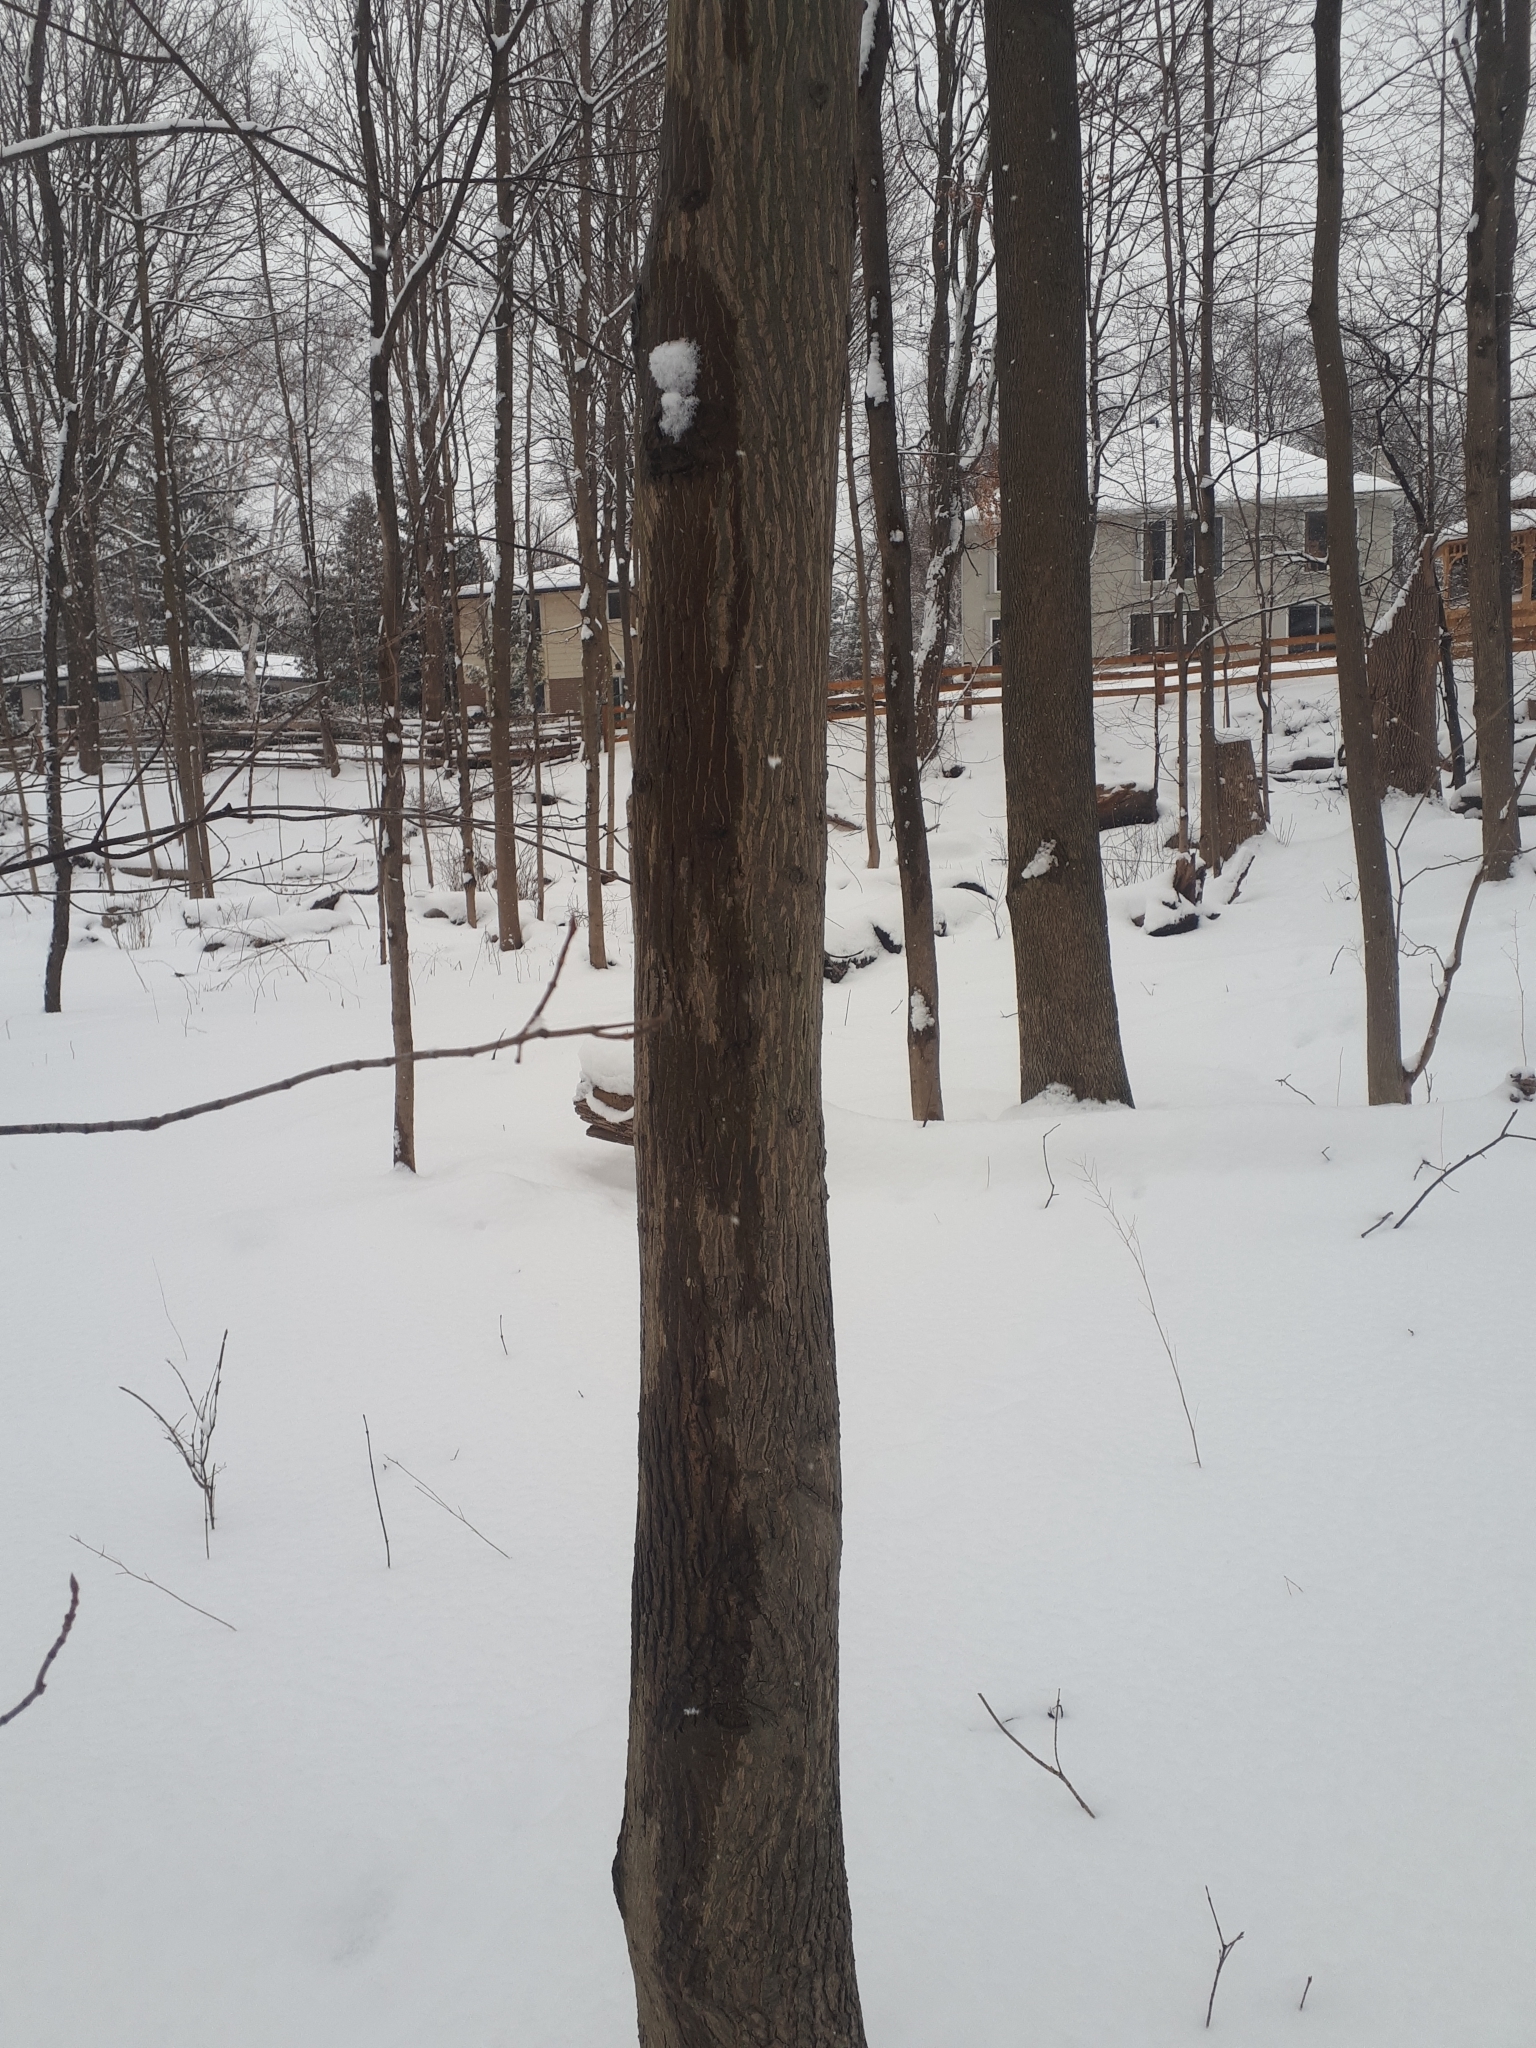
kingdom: Plantae
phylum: Tracheophyta
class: Magnoliopsida
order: Fagales
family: Juglandaceae
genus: Carya
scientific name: Carya cordiformis
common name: Bitternut hickory
